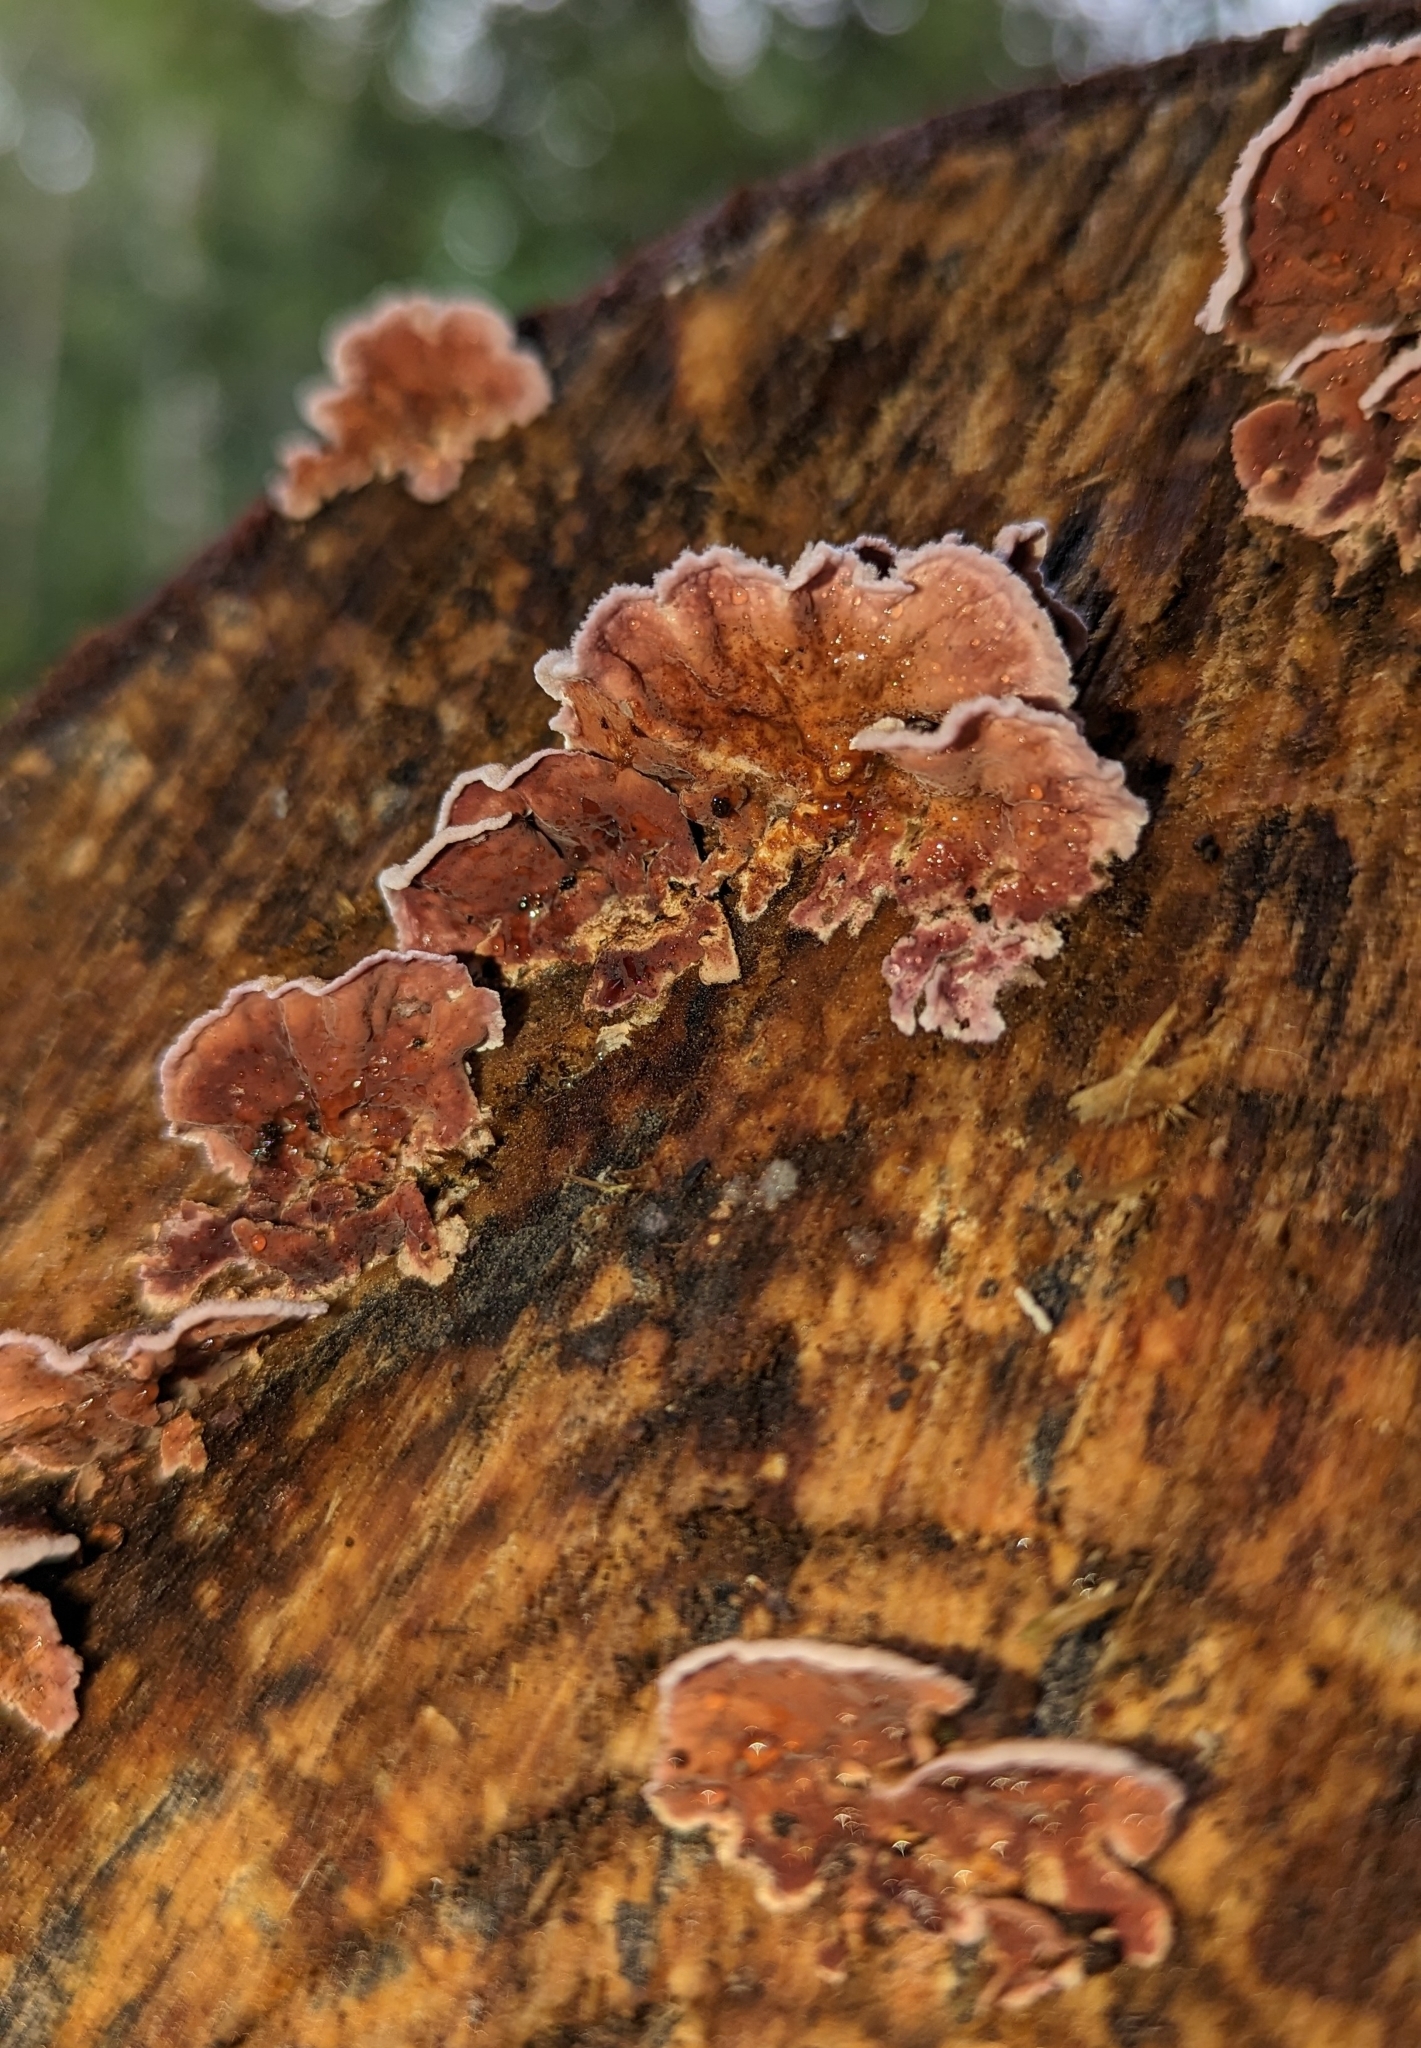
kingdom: Fungi
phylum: Basidiomycota
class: Agaricomycetes
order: Agaricales
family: Cyphellaceae
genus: Chondrostereum
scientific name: Chondrostereum purpureum
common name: Silver leaf disease
